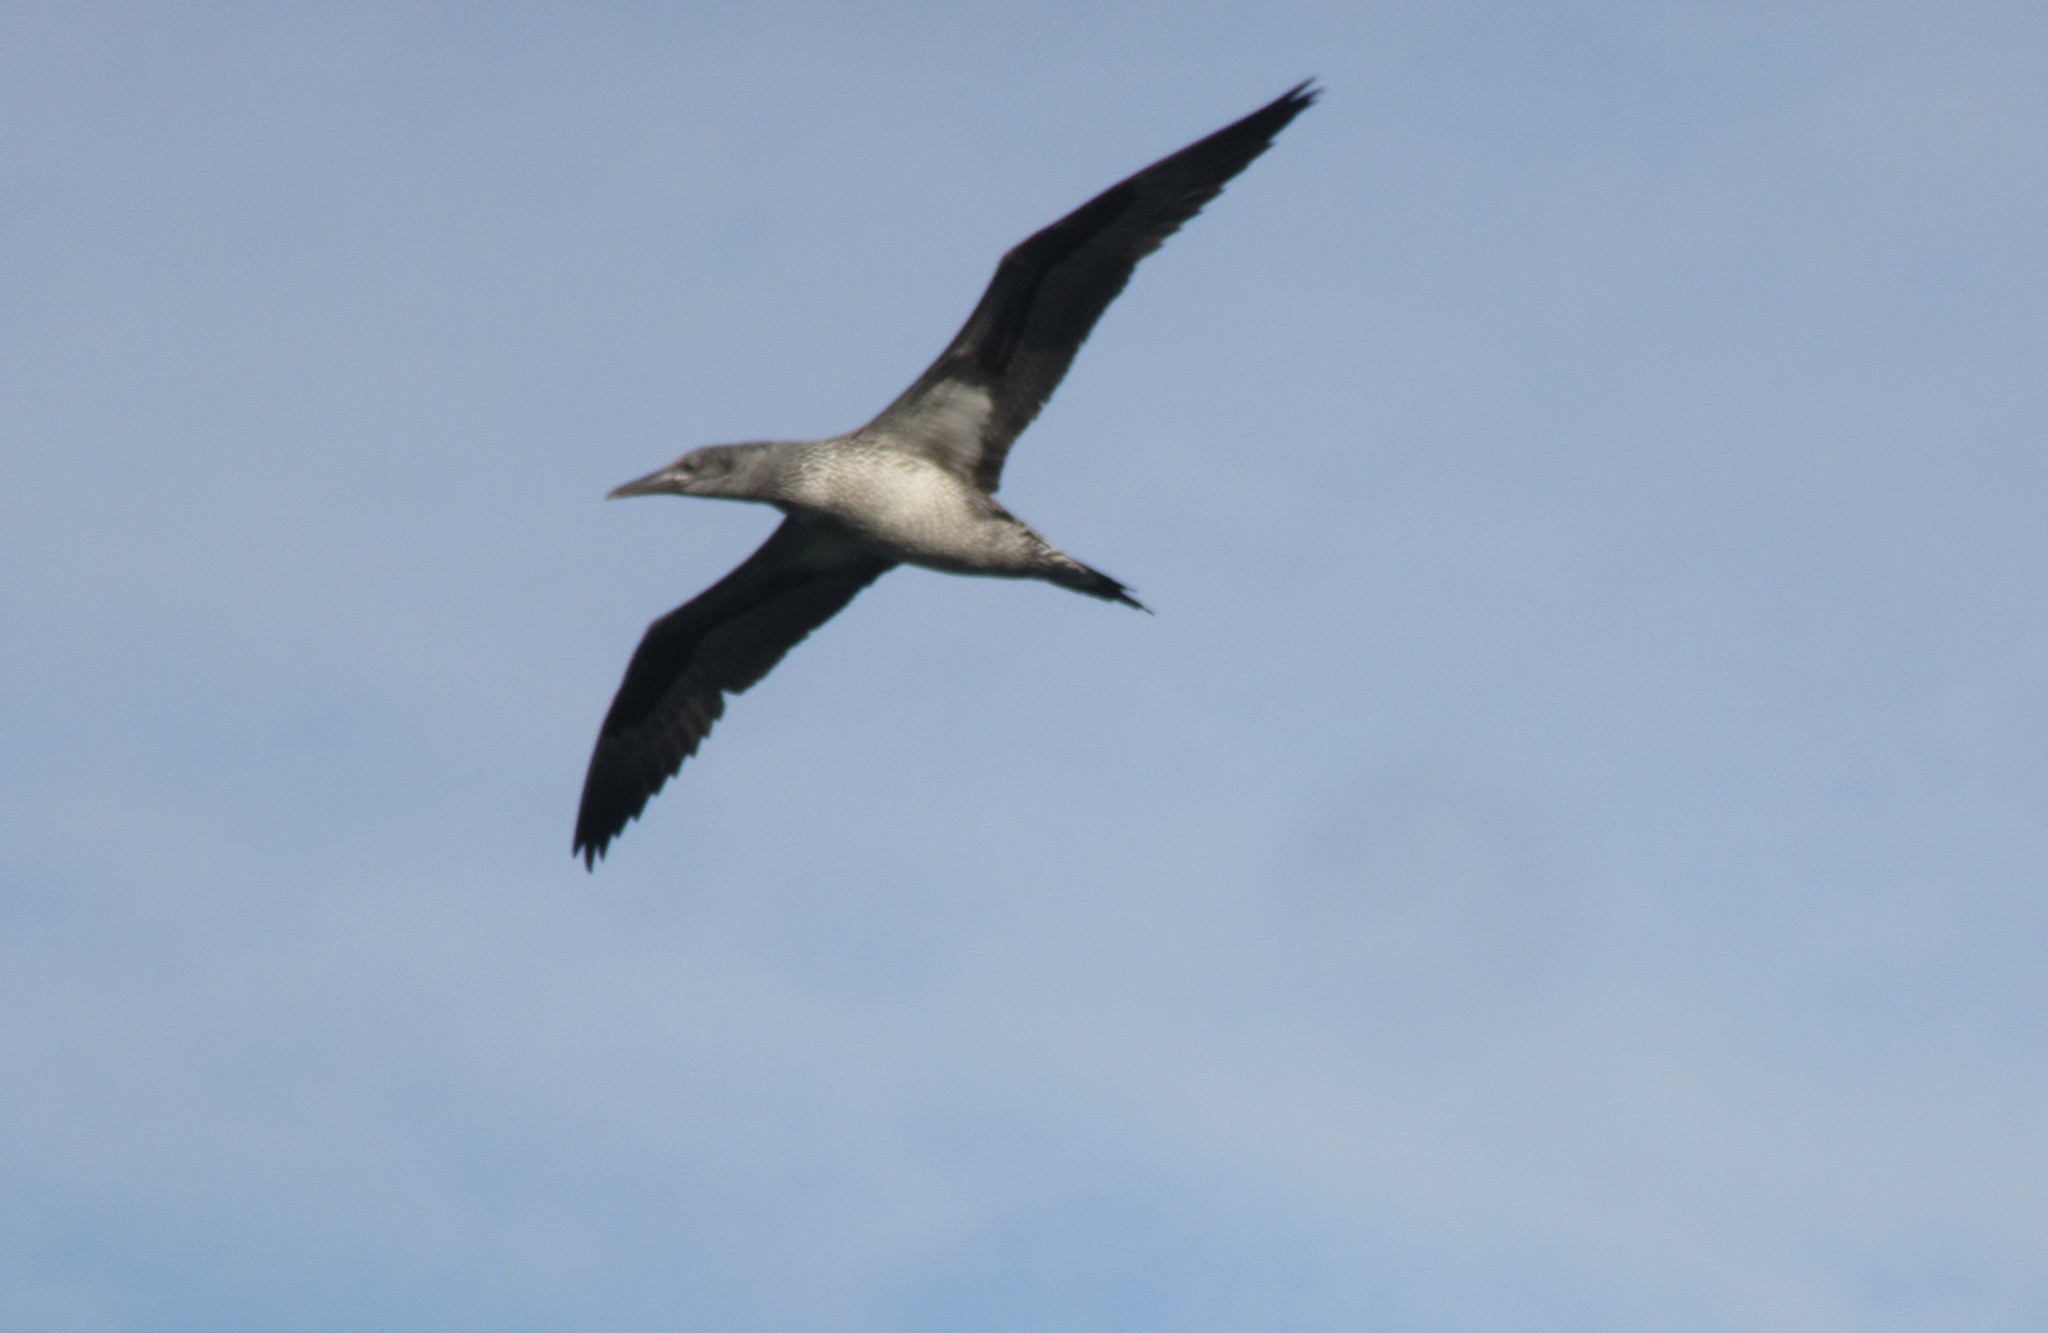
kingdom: Animalia
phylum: Chordata
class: Aves
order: Suliformes
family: Sulidae
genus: Morus
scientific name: Morus bassanus
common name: Northern gannet
